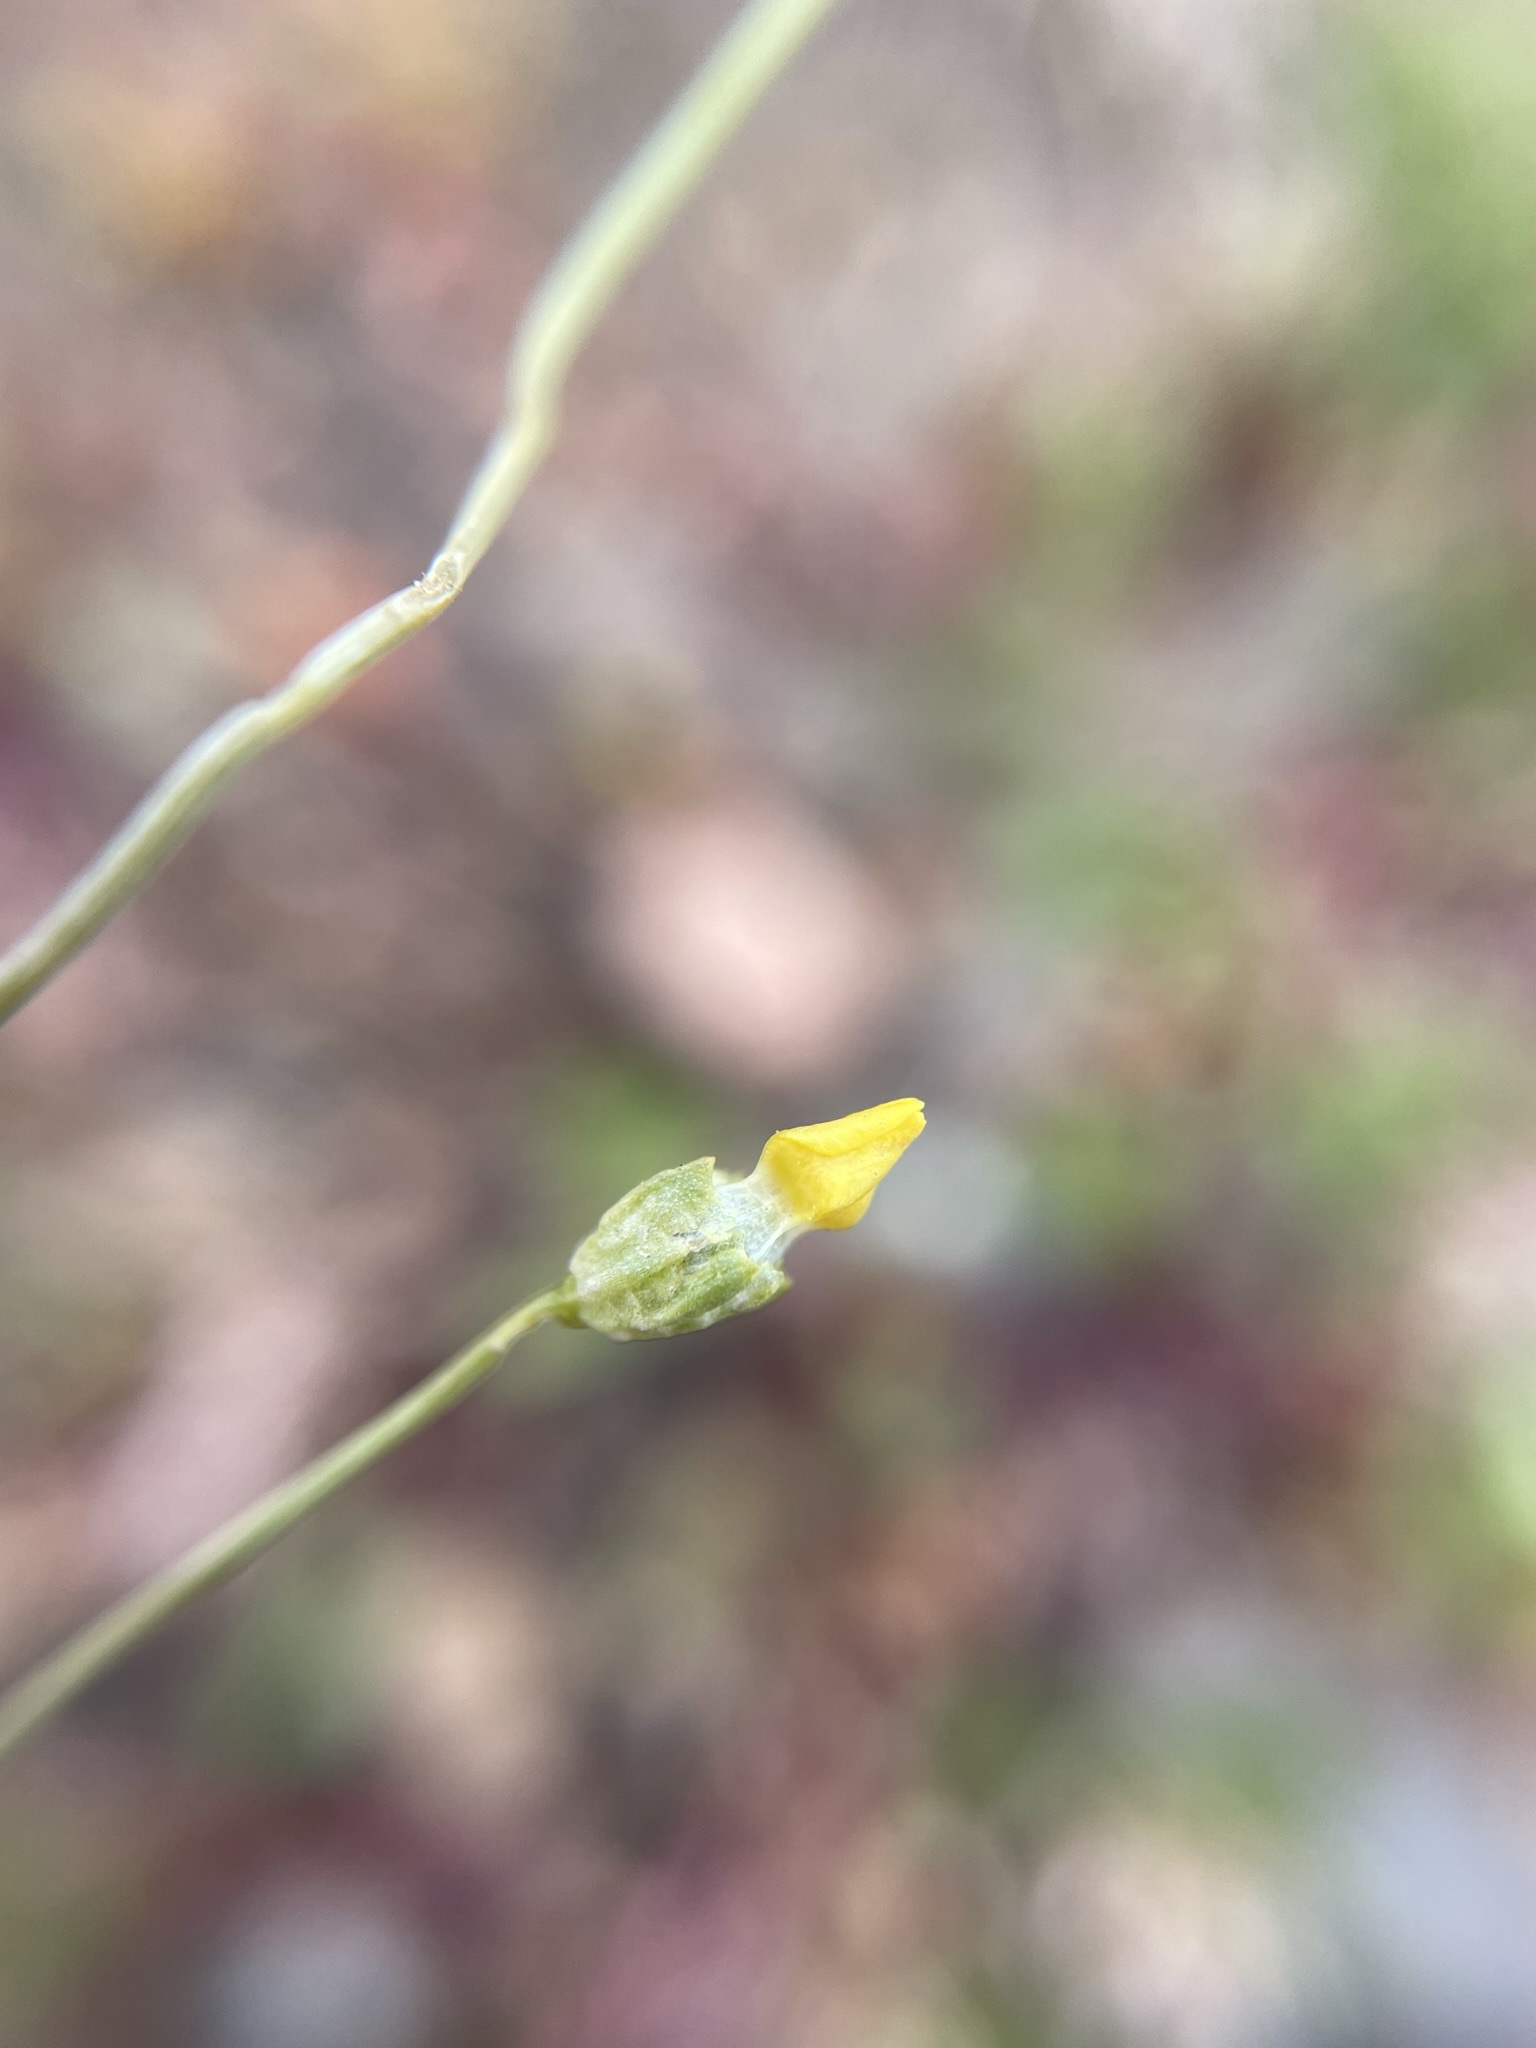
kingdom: Plantae
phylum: Tracheophyta
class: Magnoliopsida
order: Gentianales
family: Gentianaceae
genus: Microcala
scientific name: Microcala quadrangularis
